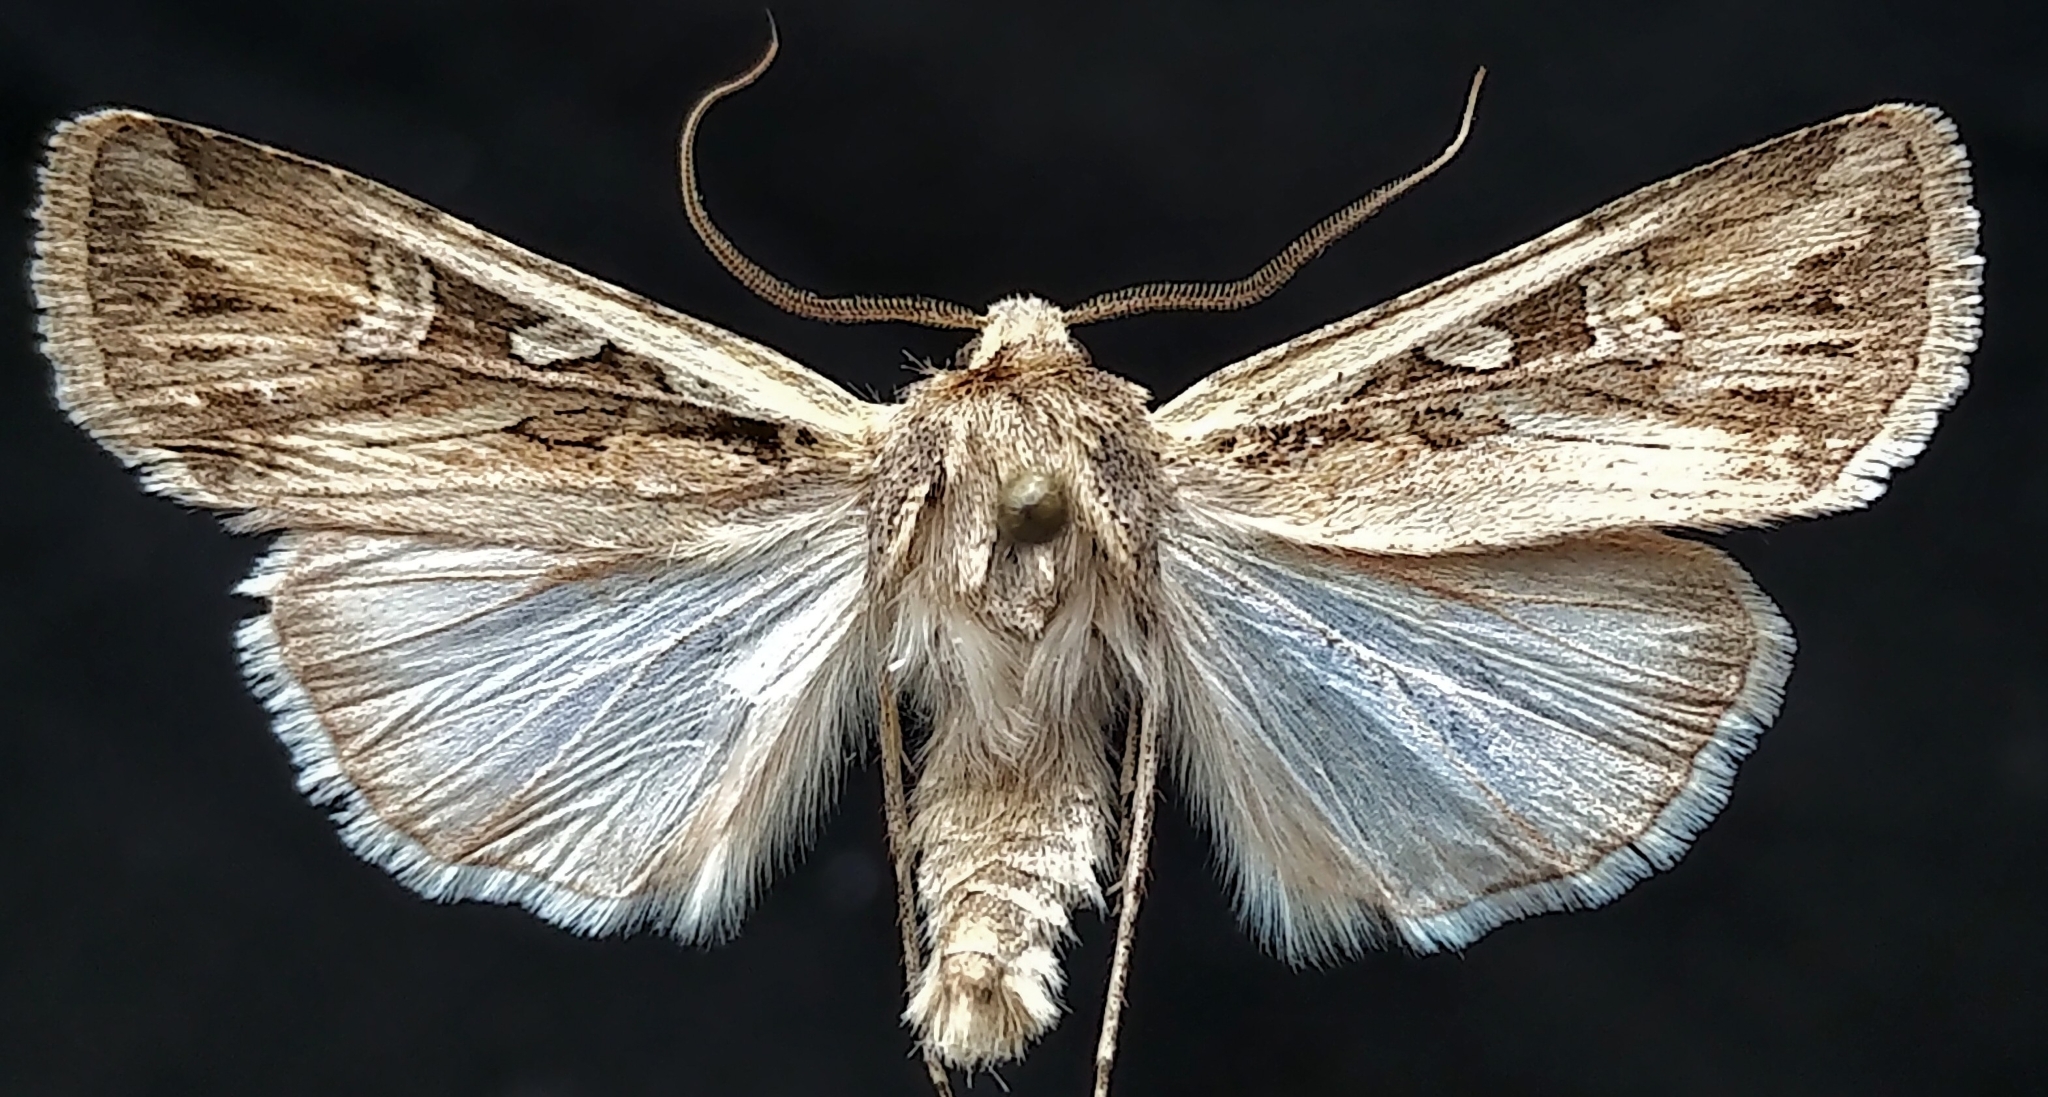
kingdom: Animalia
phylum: Arthropoda
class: Insecta
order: Lepidoptera
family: Noctuidae
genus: Euxoa
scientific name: Euxoa olivia
